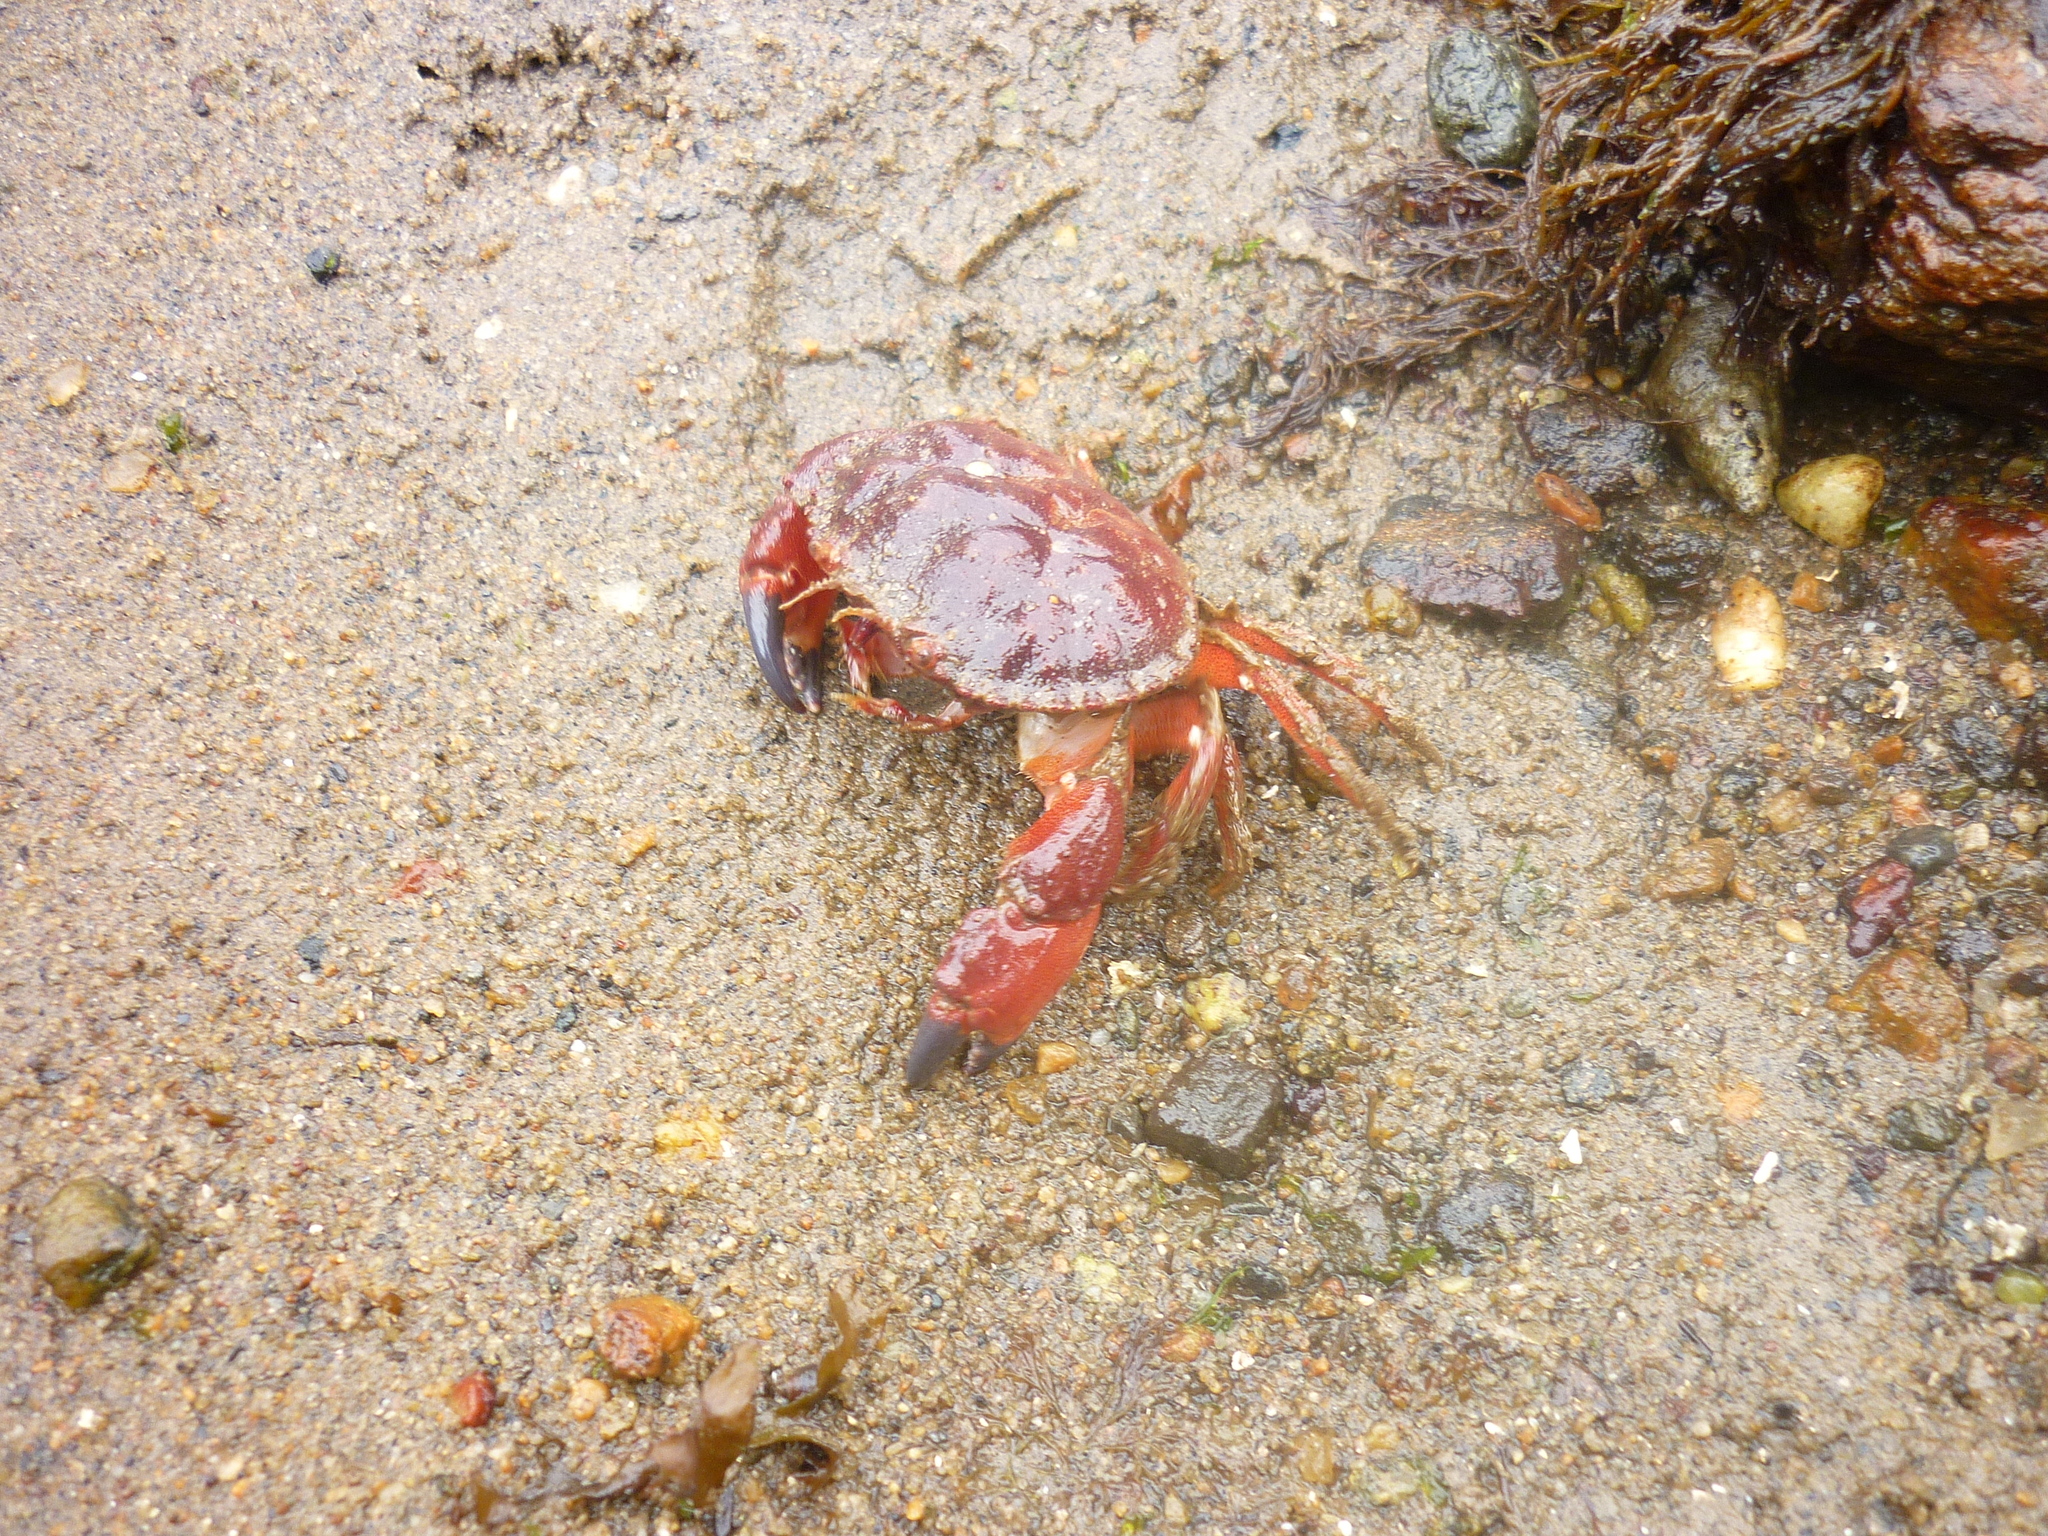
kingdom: Animalia
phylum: Arthropoda
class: Malacostraca
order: Decapoda
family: Cancridae
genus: Glebocarcinus
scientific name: Glebocarcinus oregonensis
